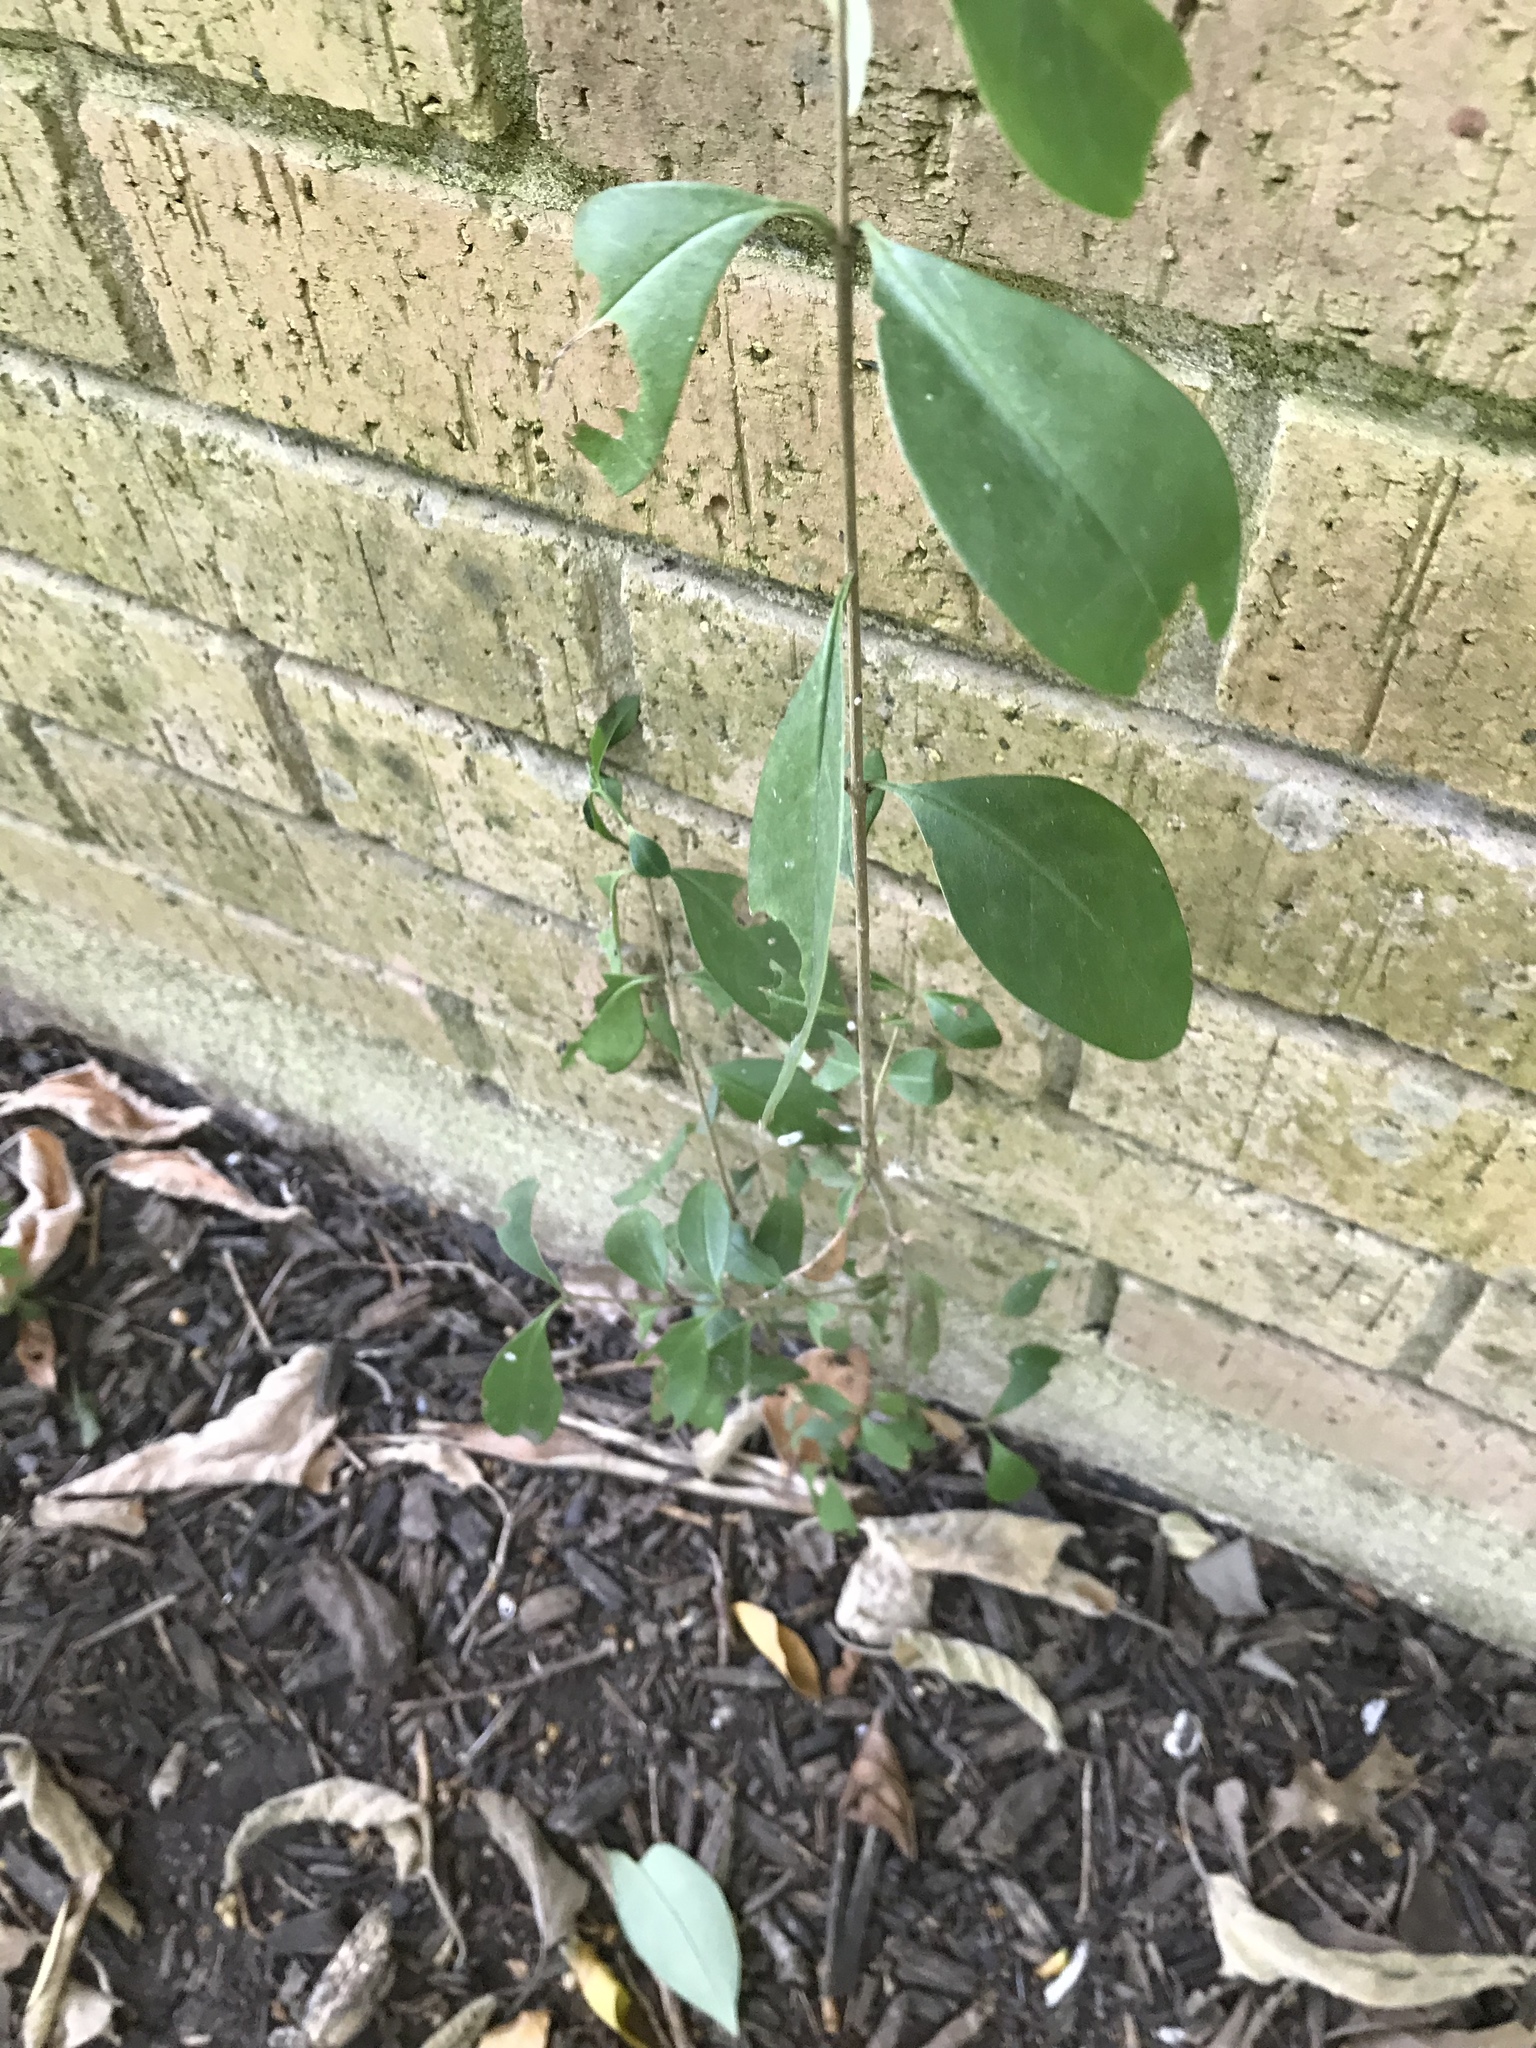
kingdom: Plantae
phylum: Tracheophyta
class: Magnoliopsida
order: Lamiales
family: Oleaceae
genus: Ligustrum
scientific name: Ligustrum lucidum
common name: Glossy privet
